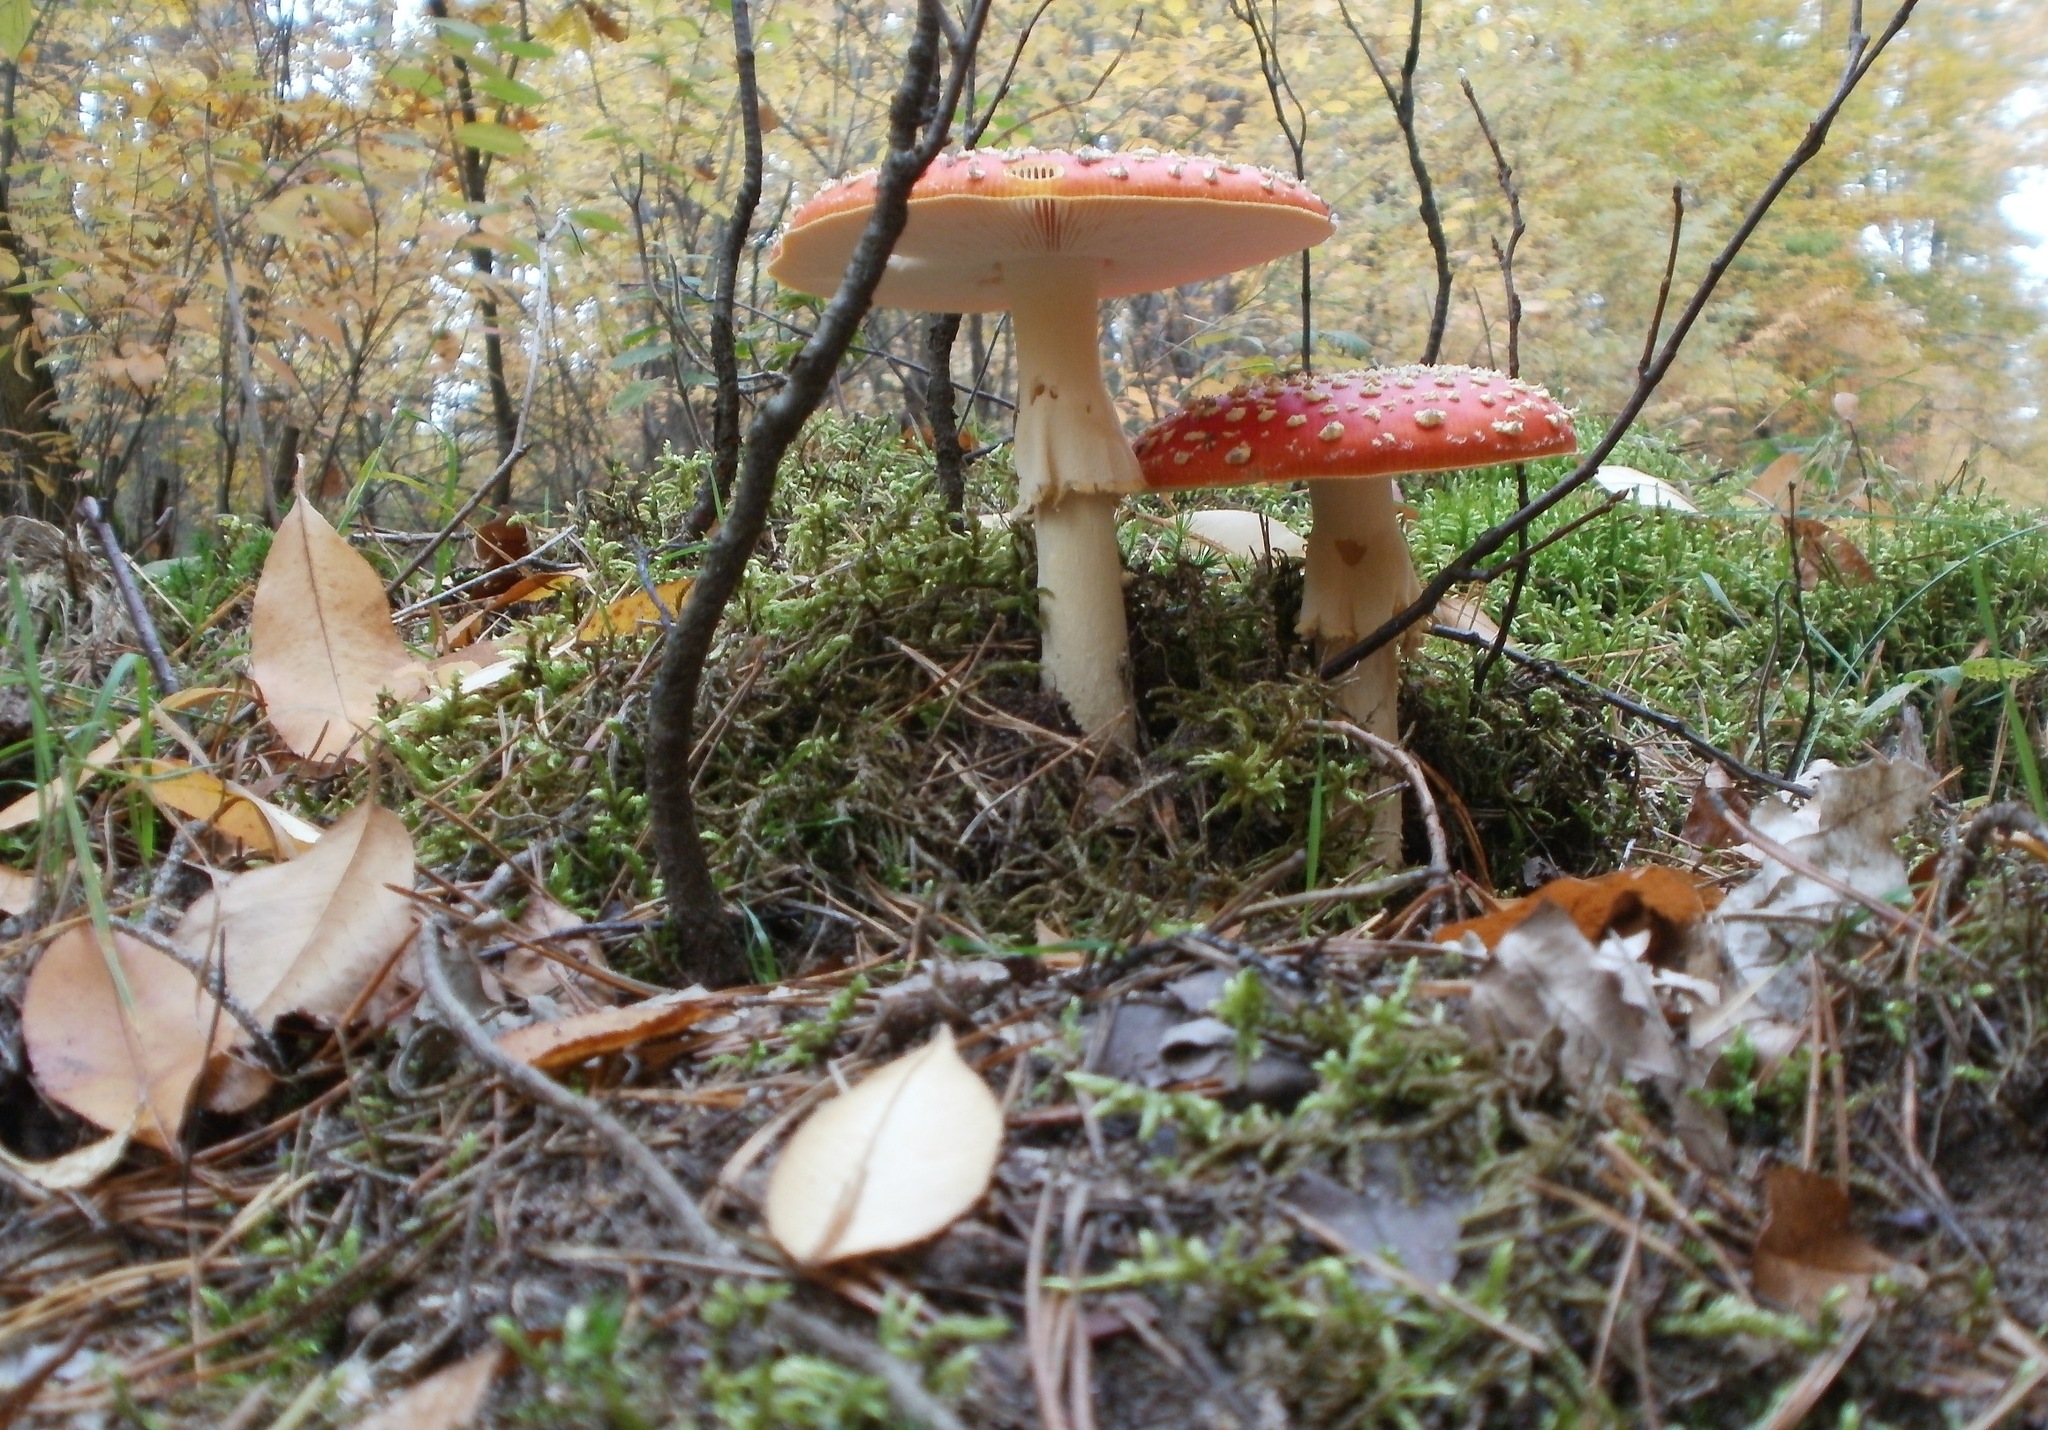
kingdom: Fungi
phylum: Basidiomycota
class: Agaricomycetes
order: Agaricales
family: Amanitaceae
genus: Amanita
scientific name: Amanita muscaria
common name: Fly agaric
